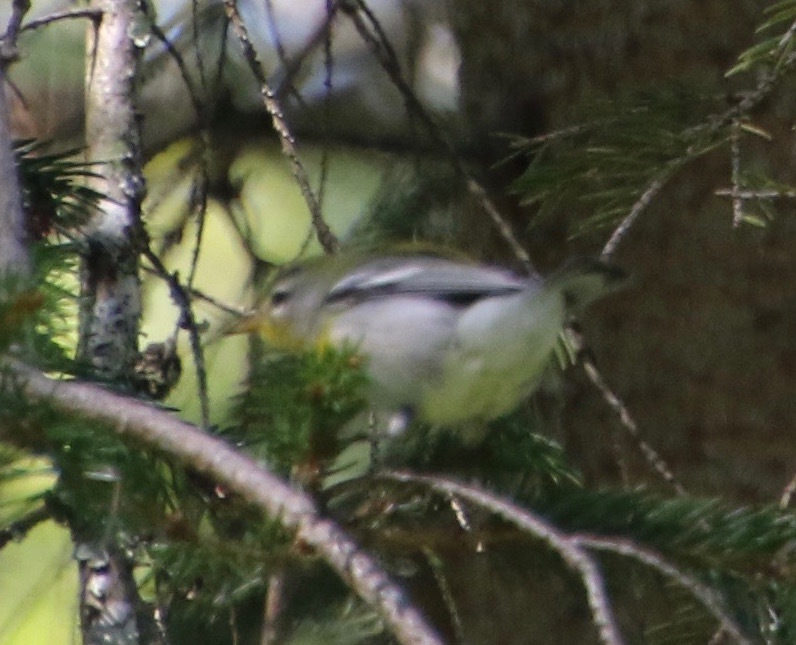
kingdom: Animalia
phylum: Chordata
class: Aves
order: Passeriformes
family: Parulidae
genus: Setophaga
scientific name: Setophaga americana
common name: Northern parula
